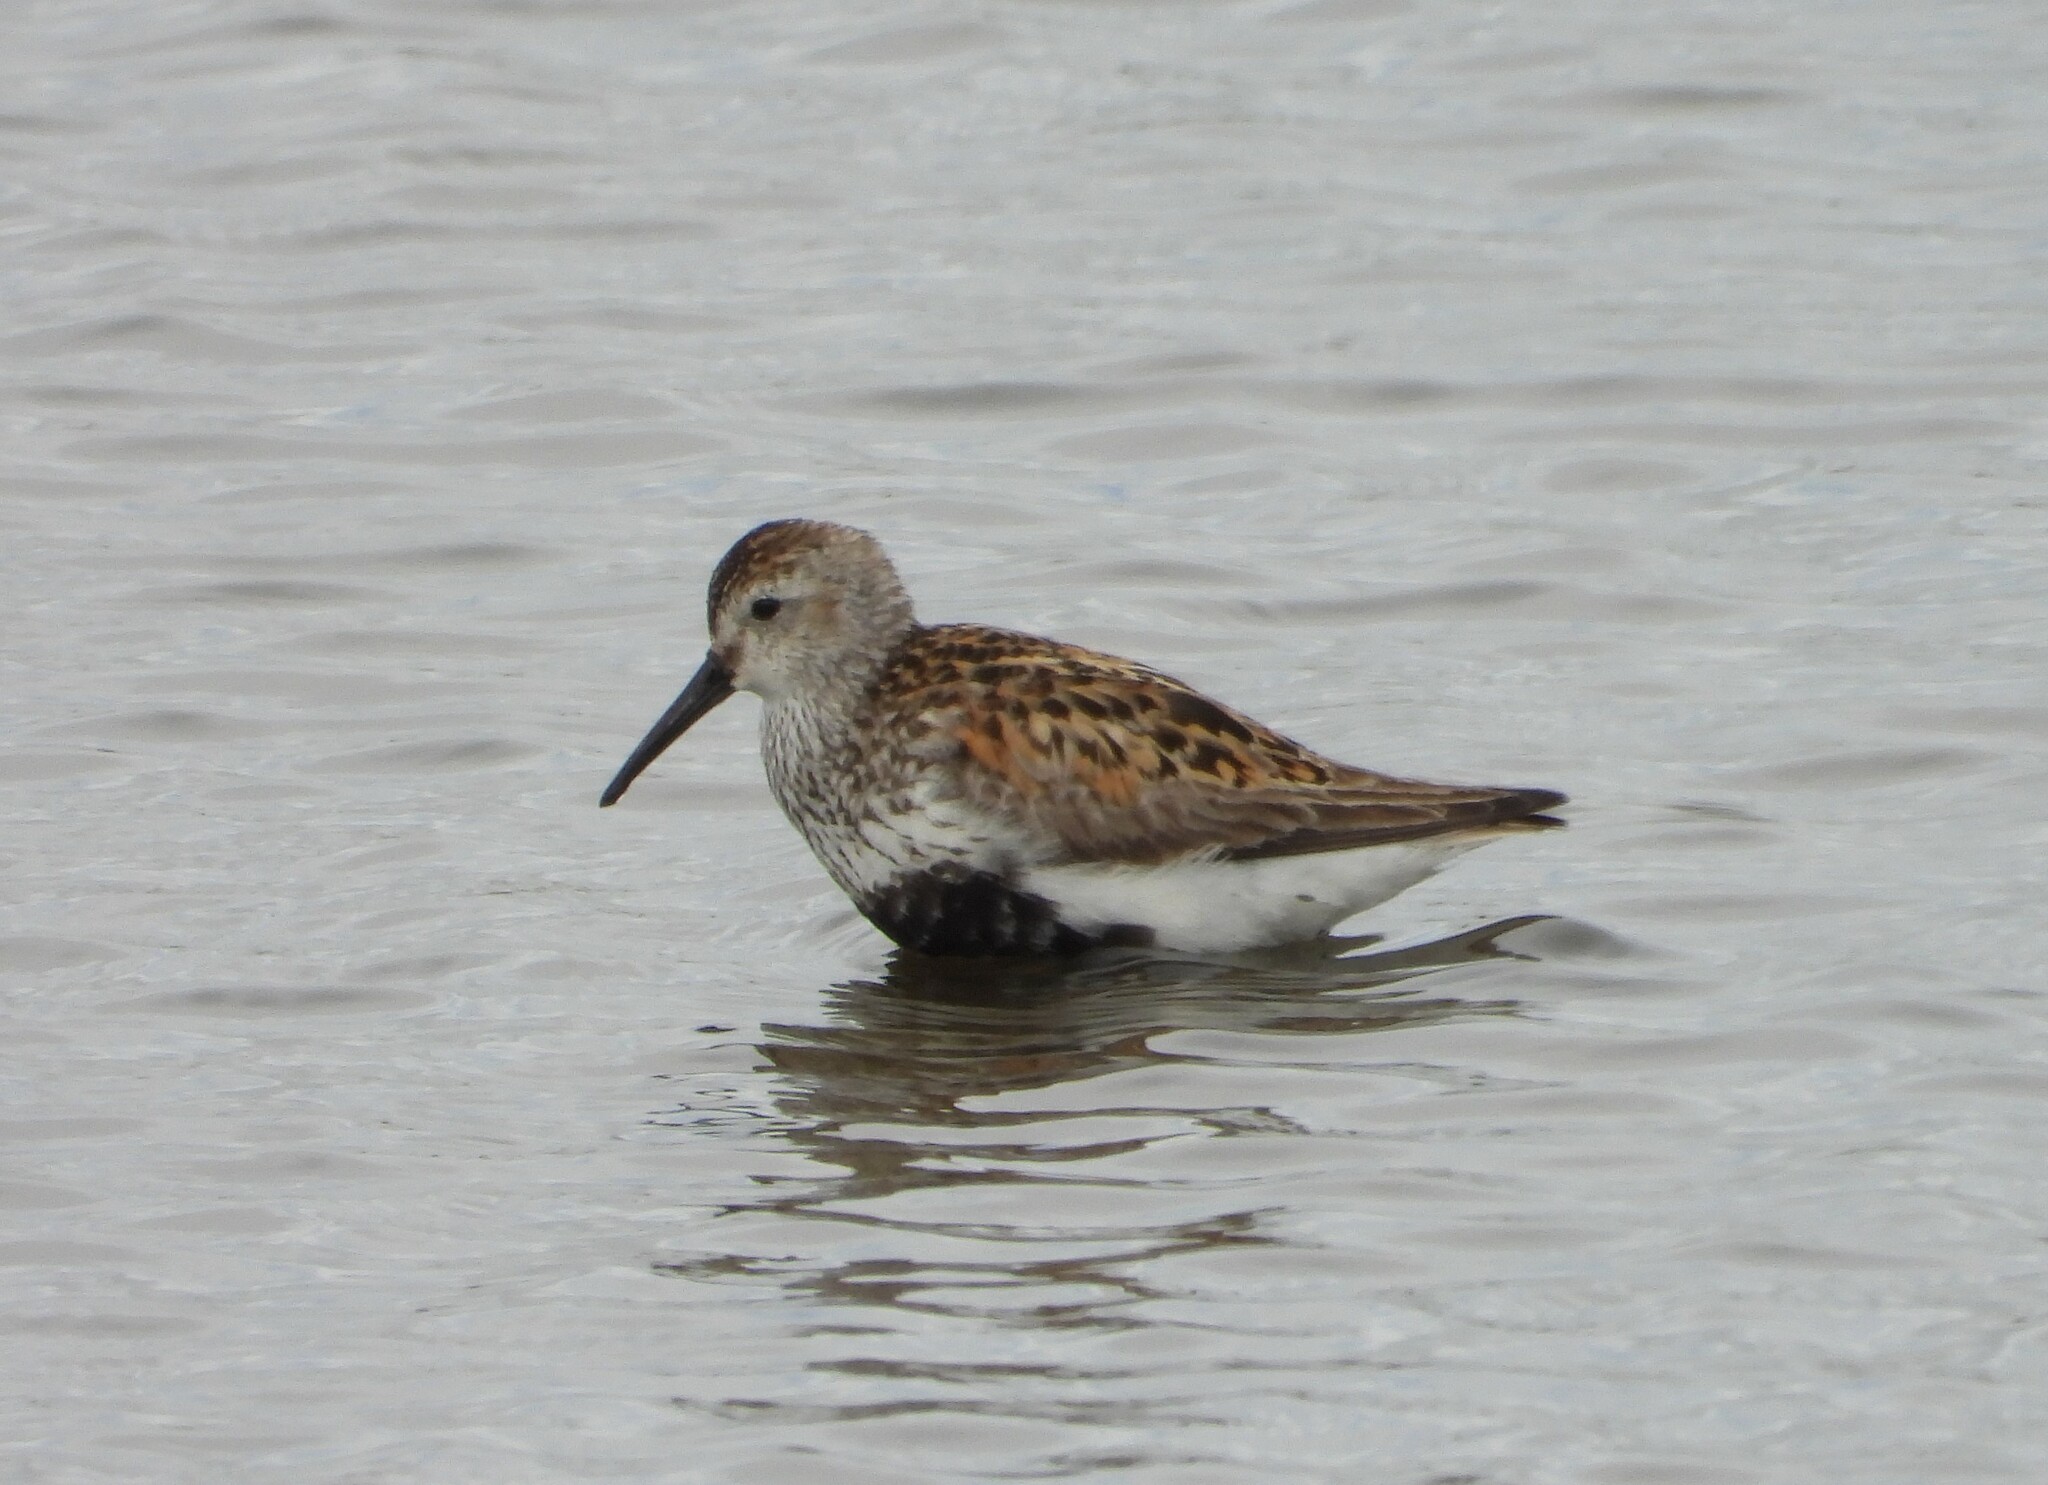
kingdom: Animalia
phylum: Chordata
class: Aves
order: Charadriiformes
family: Scolopacidae
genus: Calidris
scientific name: Calidris alpina
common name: Dunlin
